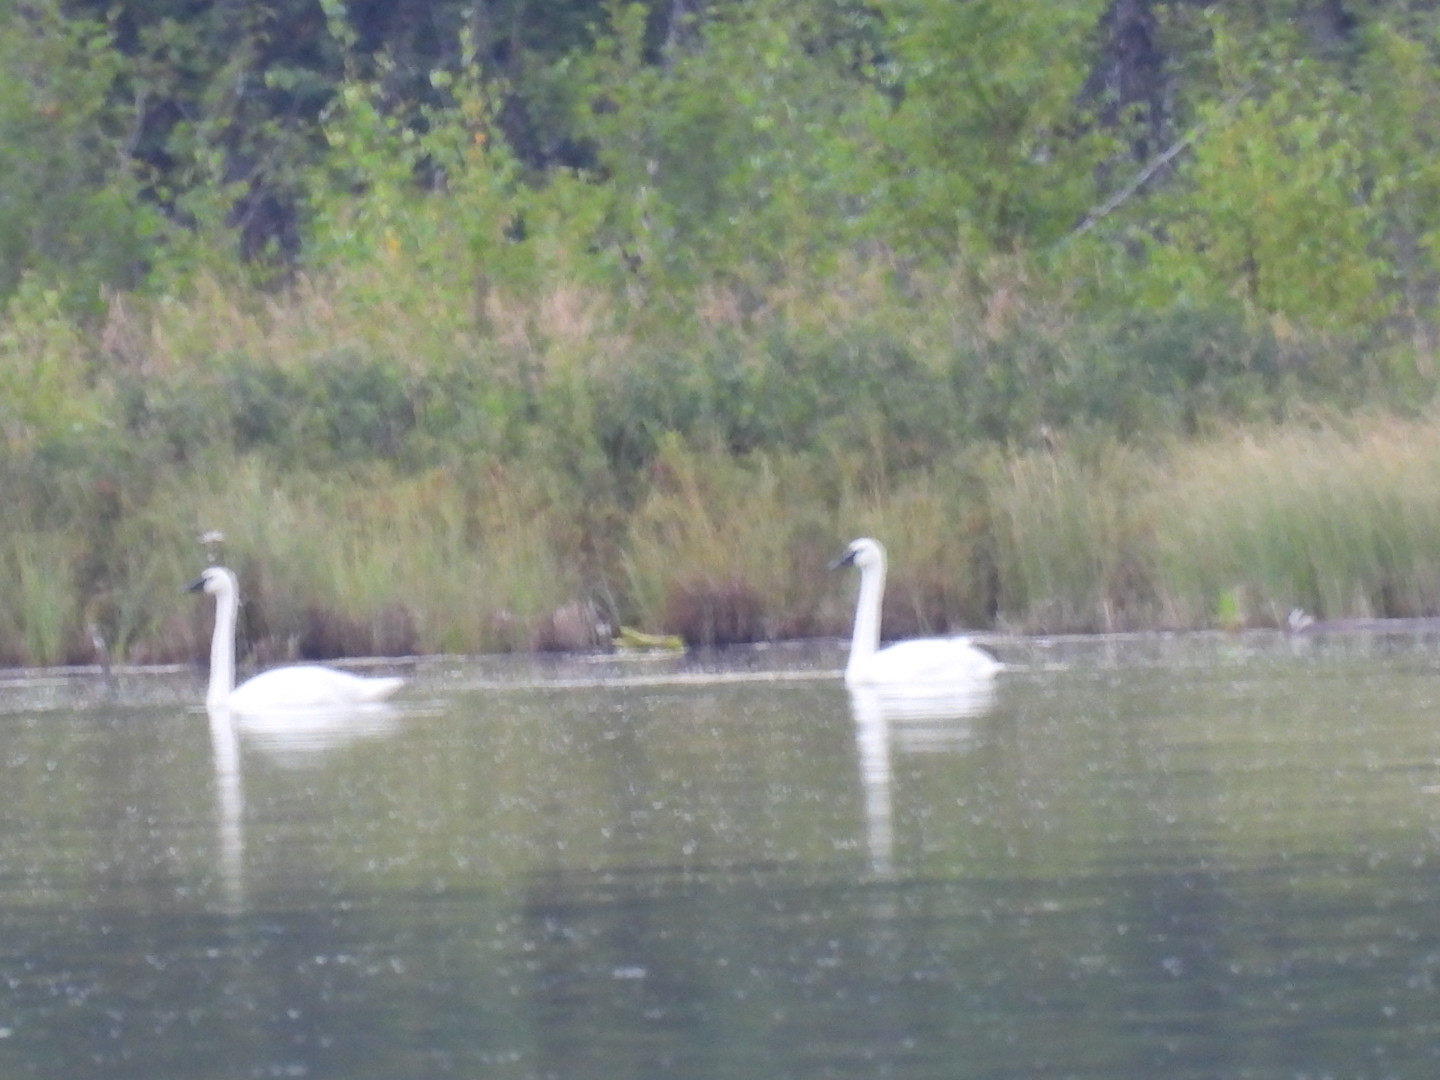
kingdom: Animalia
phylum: Chordata
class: Aves
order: Anseriformes
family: Anatidae
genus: Cygnus
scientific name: Cygnus buccinator
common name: Trumpeter swan
